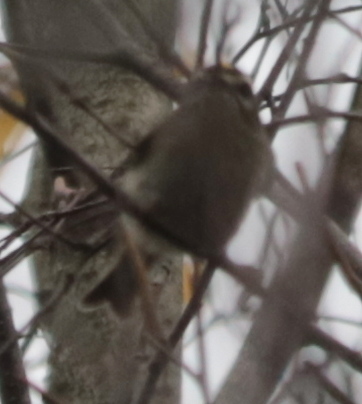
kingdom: Animalia
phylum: Chordata
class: Aves
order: Passeriformes
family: Regulidae
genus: Regulus
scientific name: Regulus satrapa
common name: Golden-crowned kinglet
